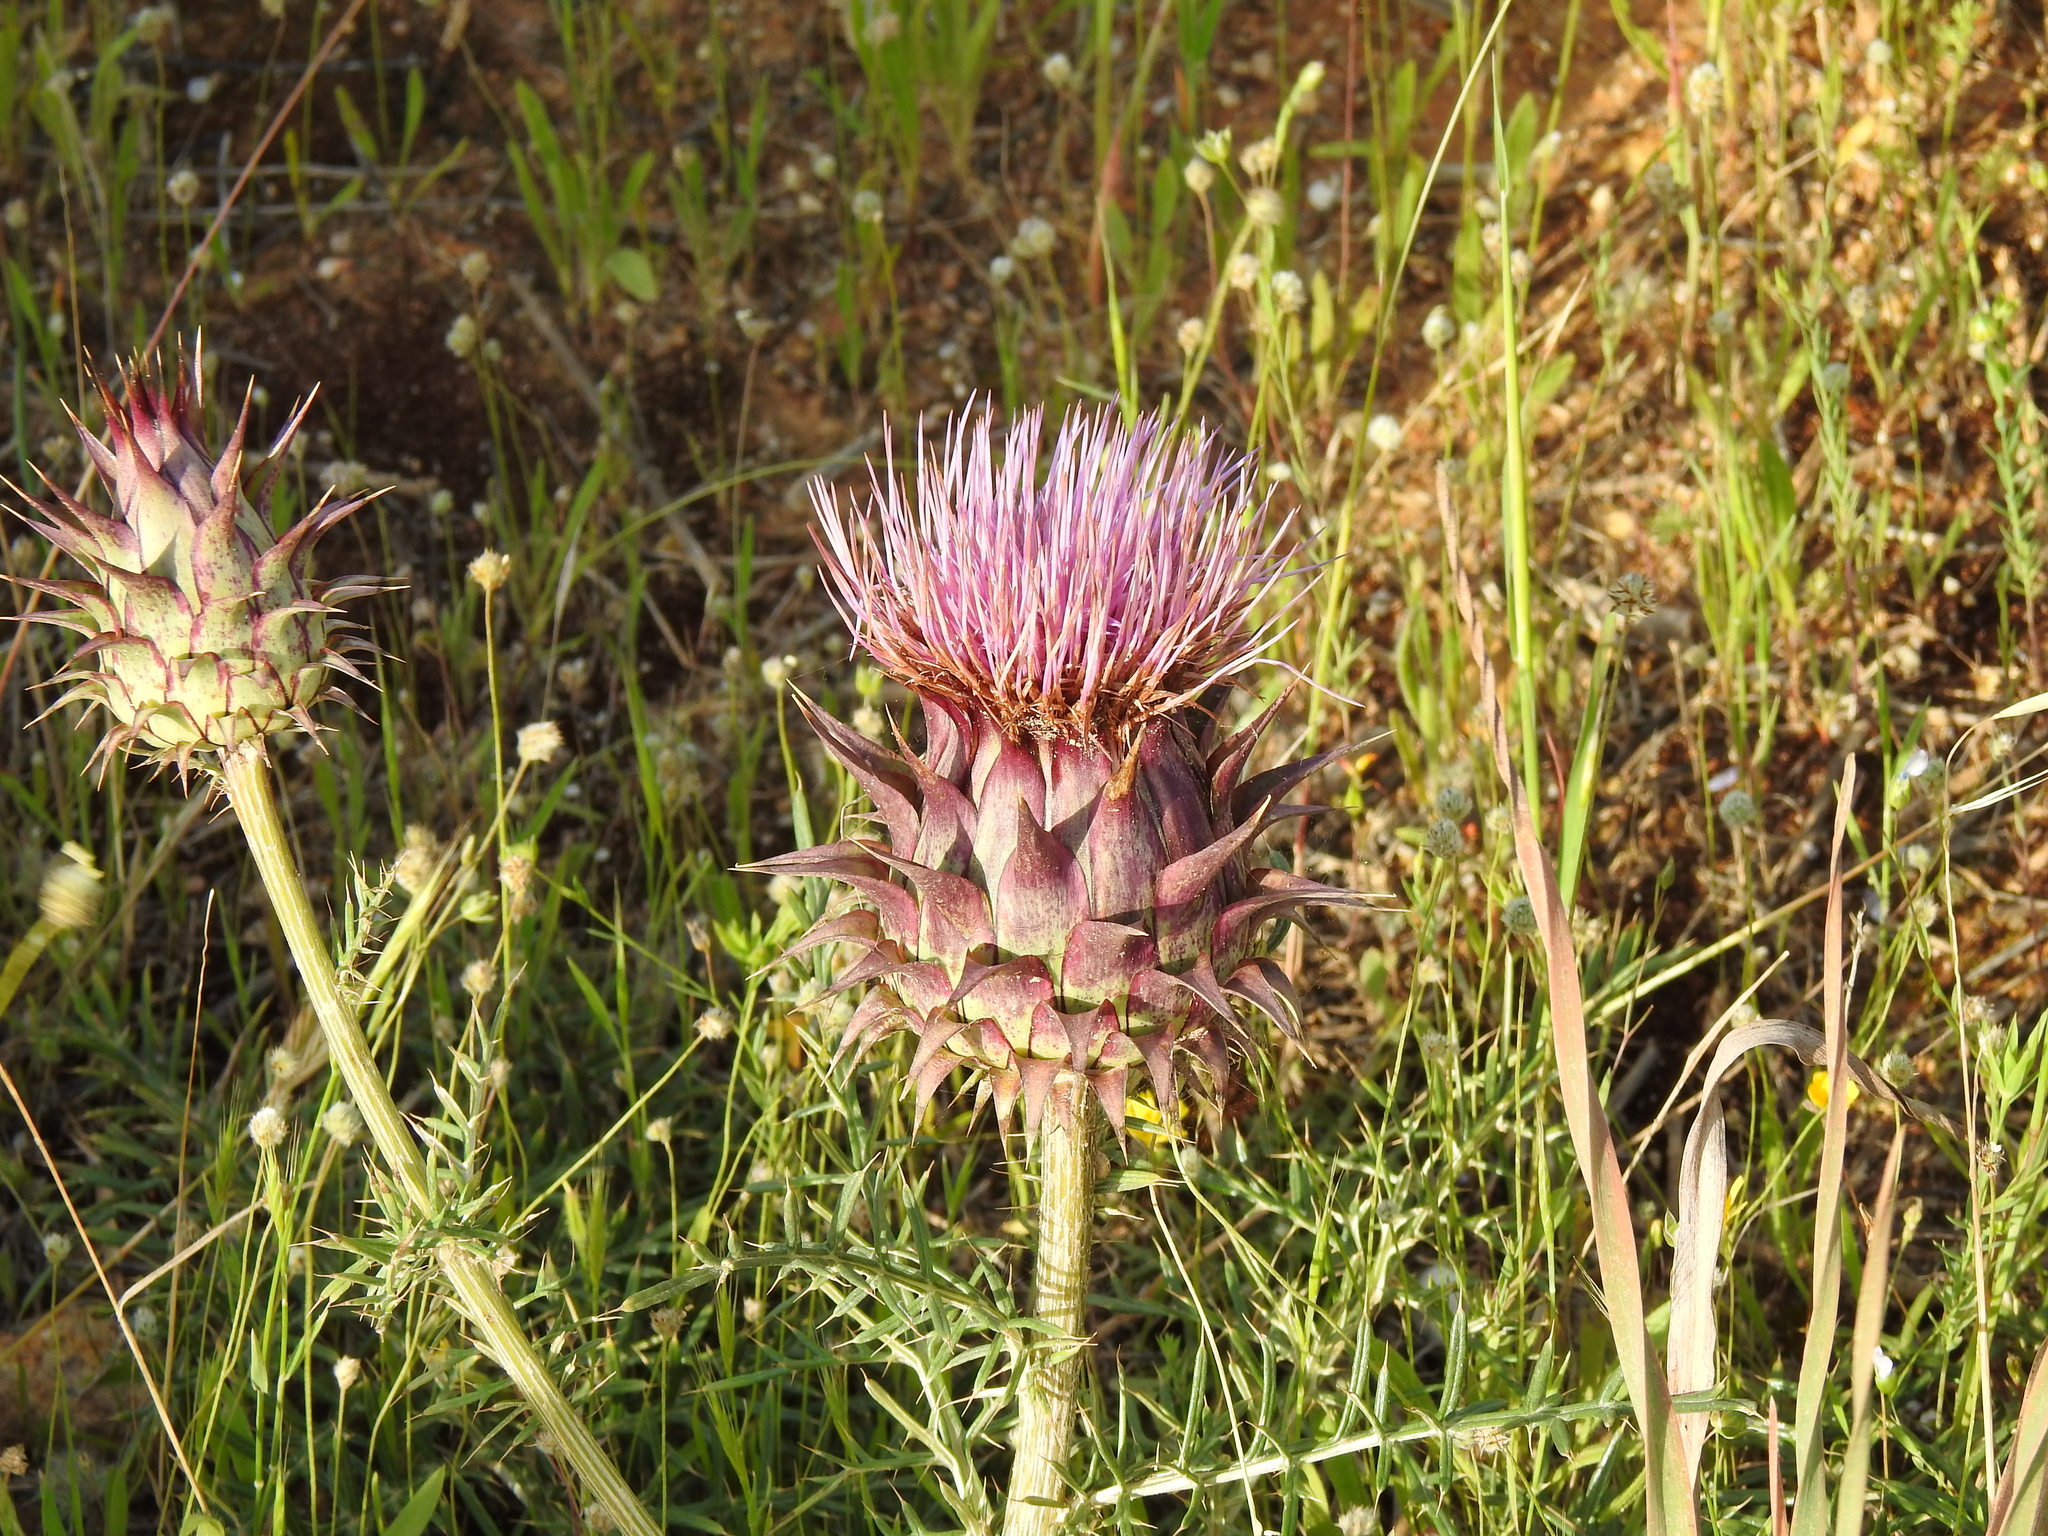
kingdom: Plantae
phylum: Tracheophyta
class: Magnoliopsida
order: Asterales
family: Asteraceae
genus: Cynara
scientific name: Cynara humilis
